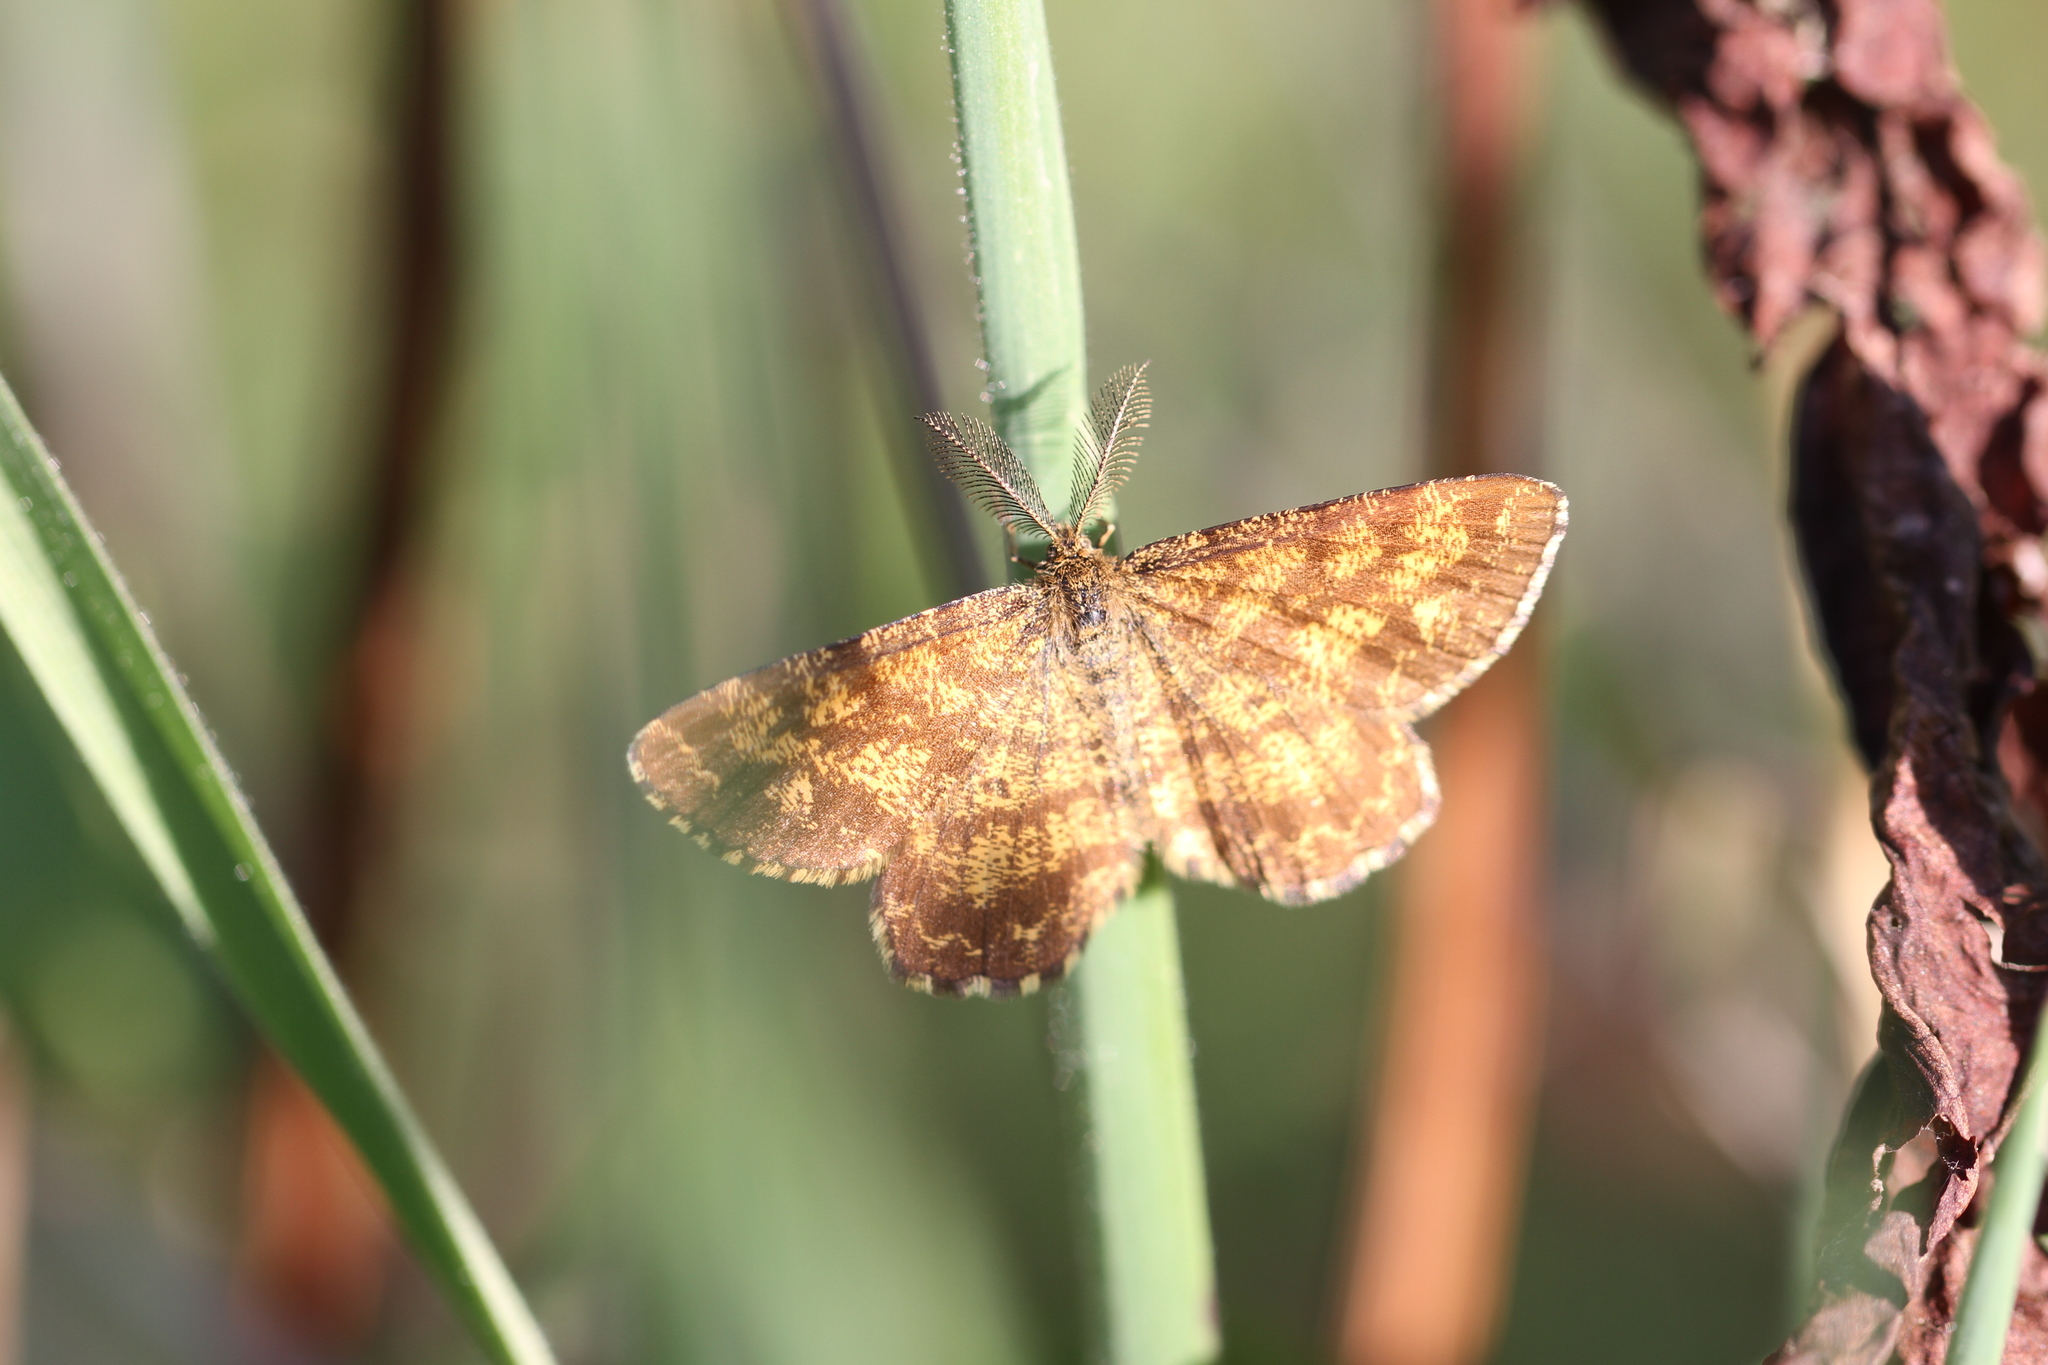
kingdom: Animalia
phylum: Arthropoda
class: Insecta
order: Lepidoptera
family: Geometridae
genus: Ematurga
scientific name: Ematurga atomaria
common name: Common heath
